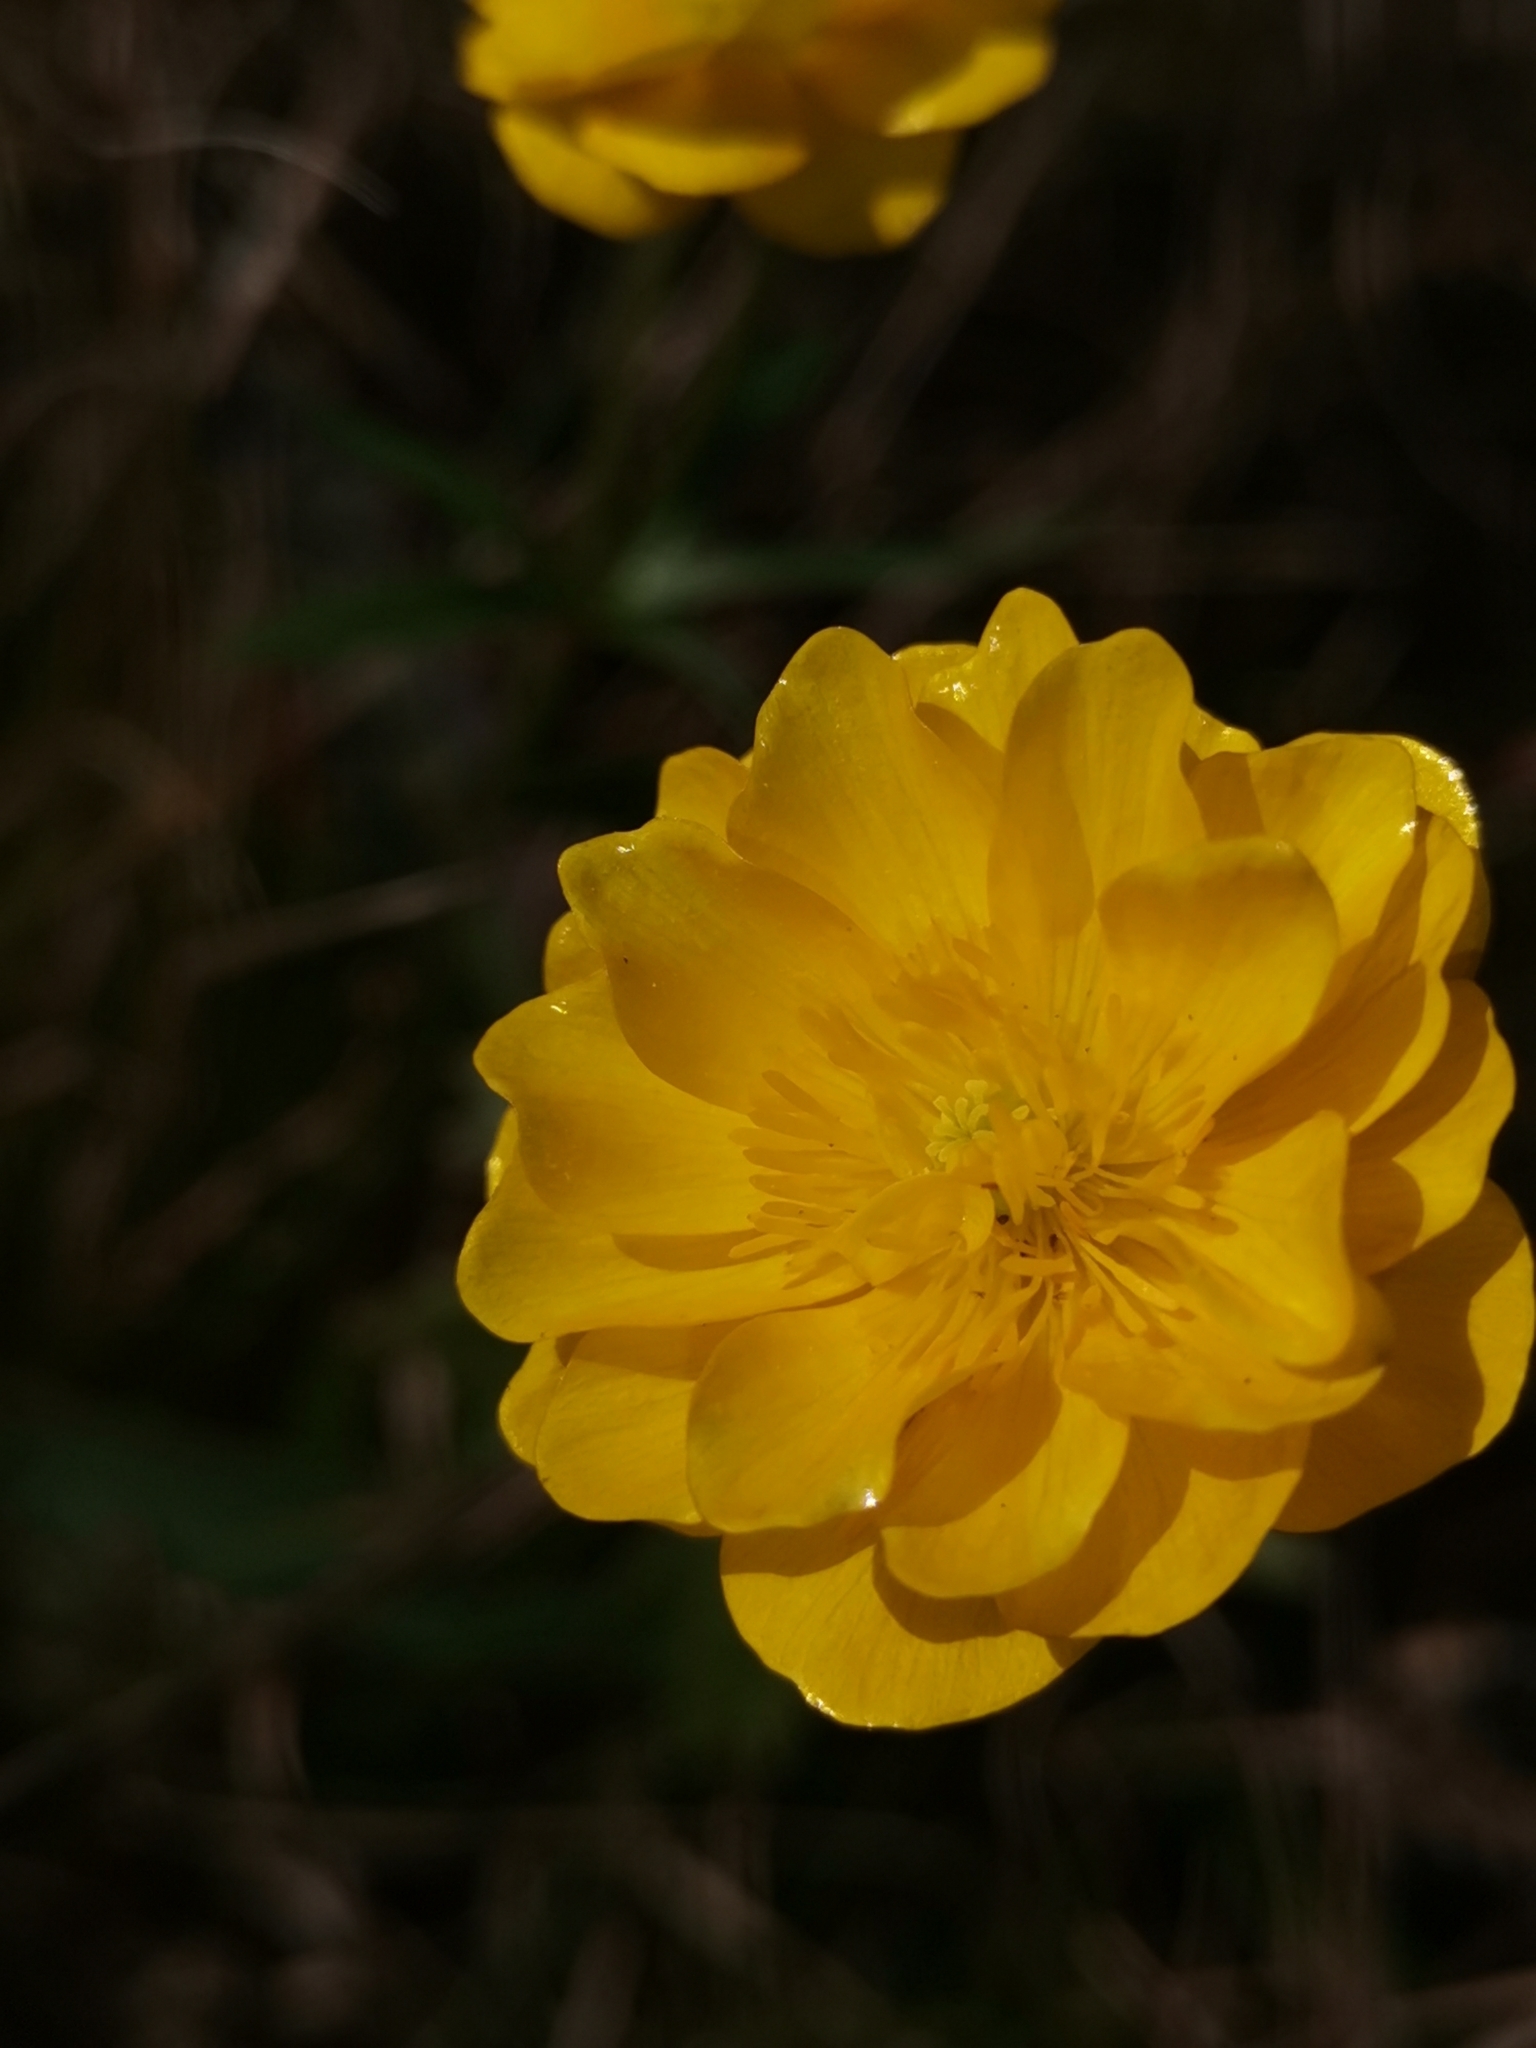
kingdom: Plantae
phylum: Tracheophyta
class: Magnoliopsida
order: Ranunculales
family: Ranunculaceae
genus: Ranunculus
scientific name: Ranunculus carinthiacus
